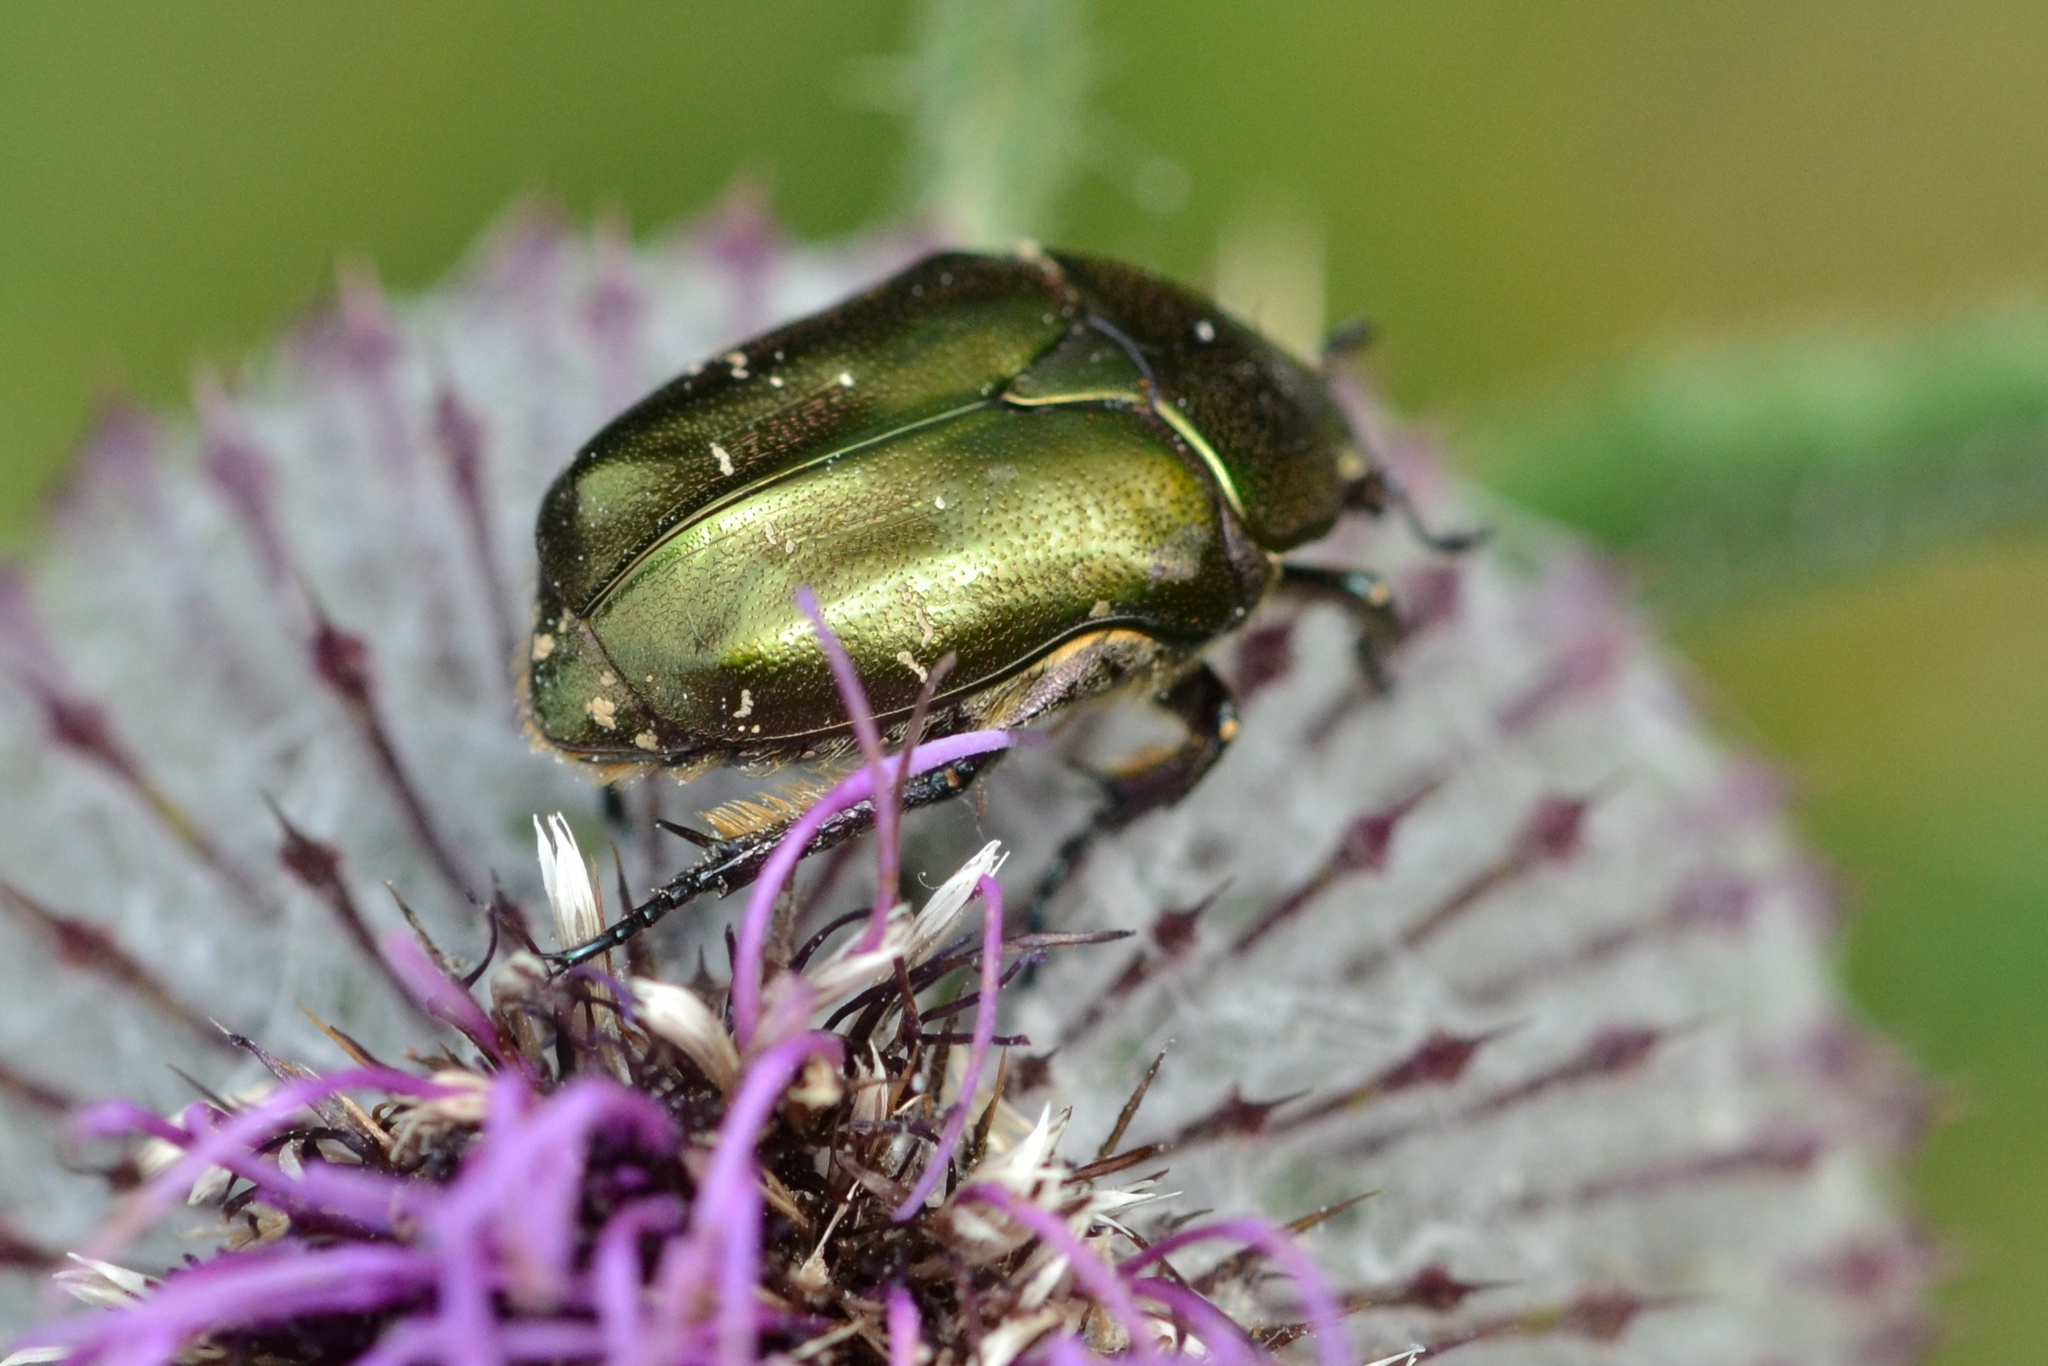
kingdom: Animalia
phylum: Arthropoda
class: Insecta
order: Coleoptera
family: Scarabaeidae
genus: Protaetia
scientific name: Protaetia cuprea
